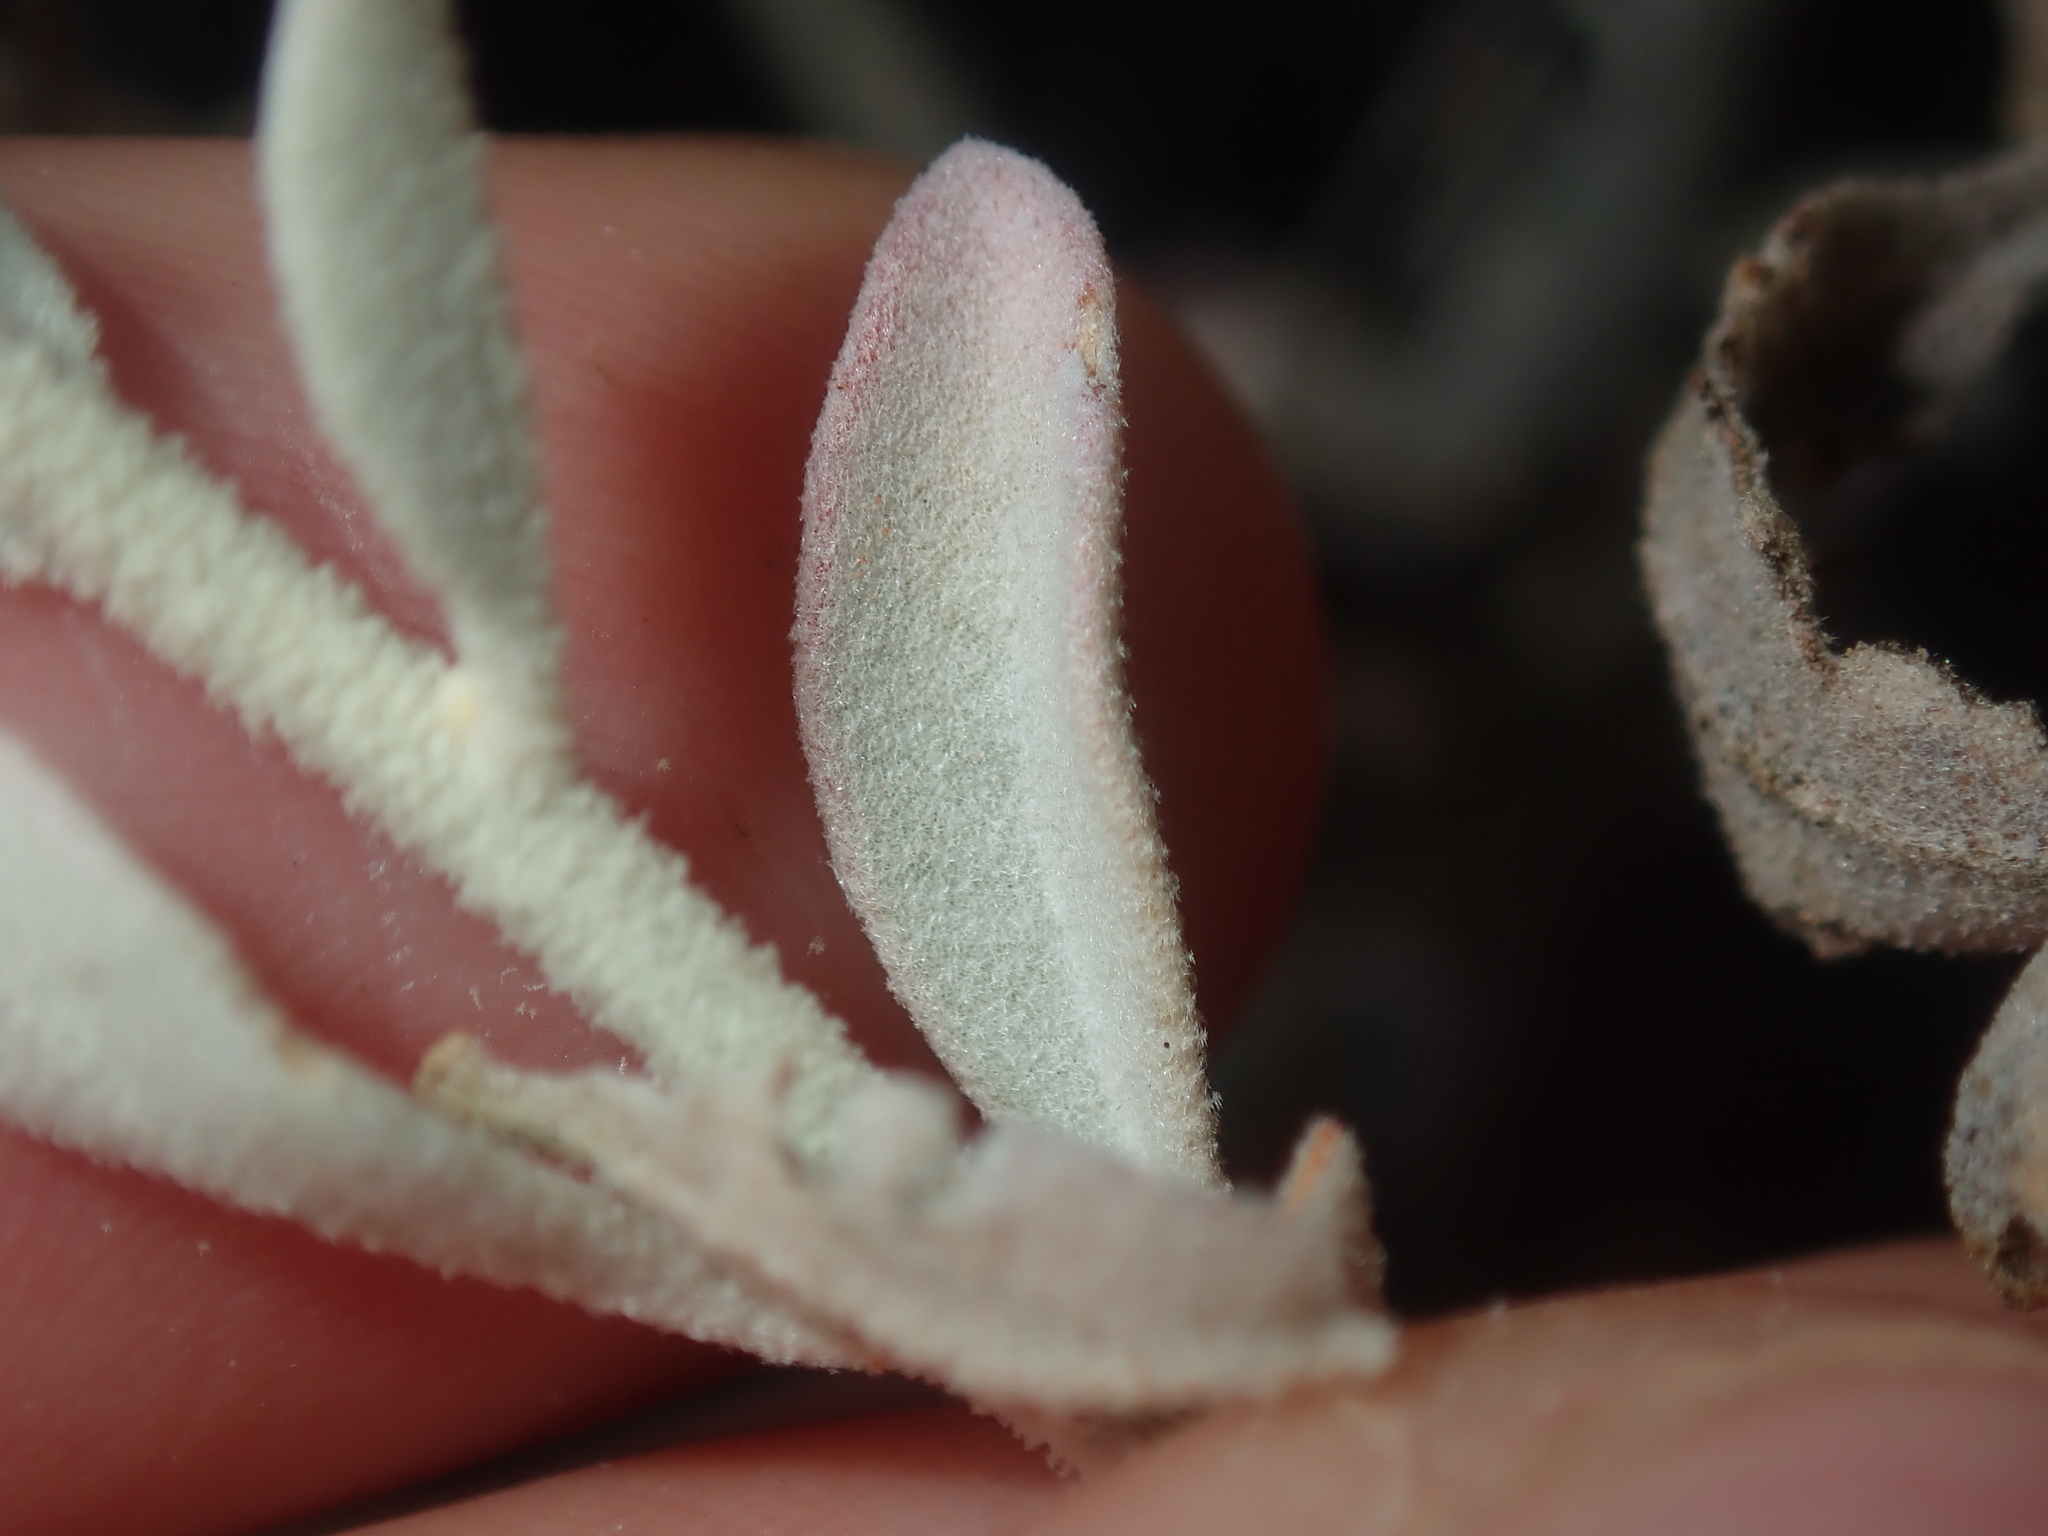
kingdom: Plantae
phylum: Tracheophyta
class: Magnoliopsida
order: Caryophyllales
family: Amaranthaceae
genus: Ptilotus
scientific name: Ptilotus obovatus
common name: Cottonbush
